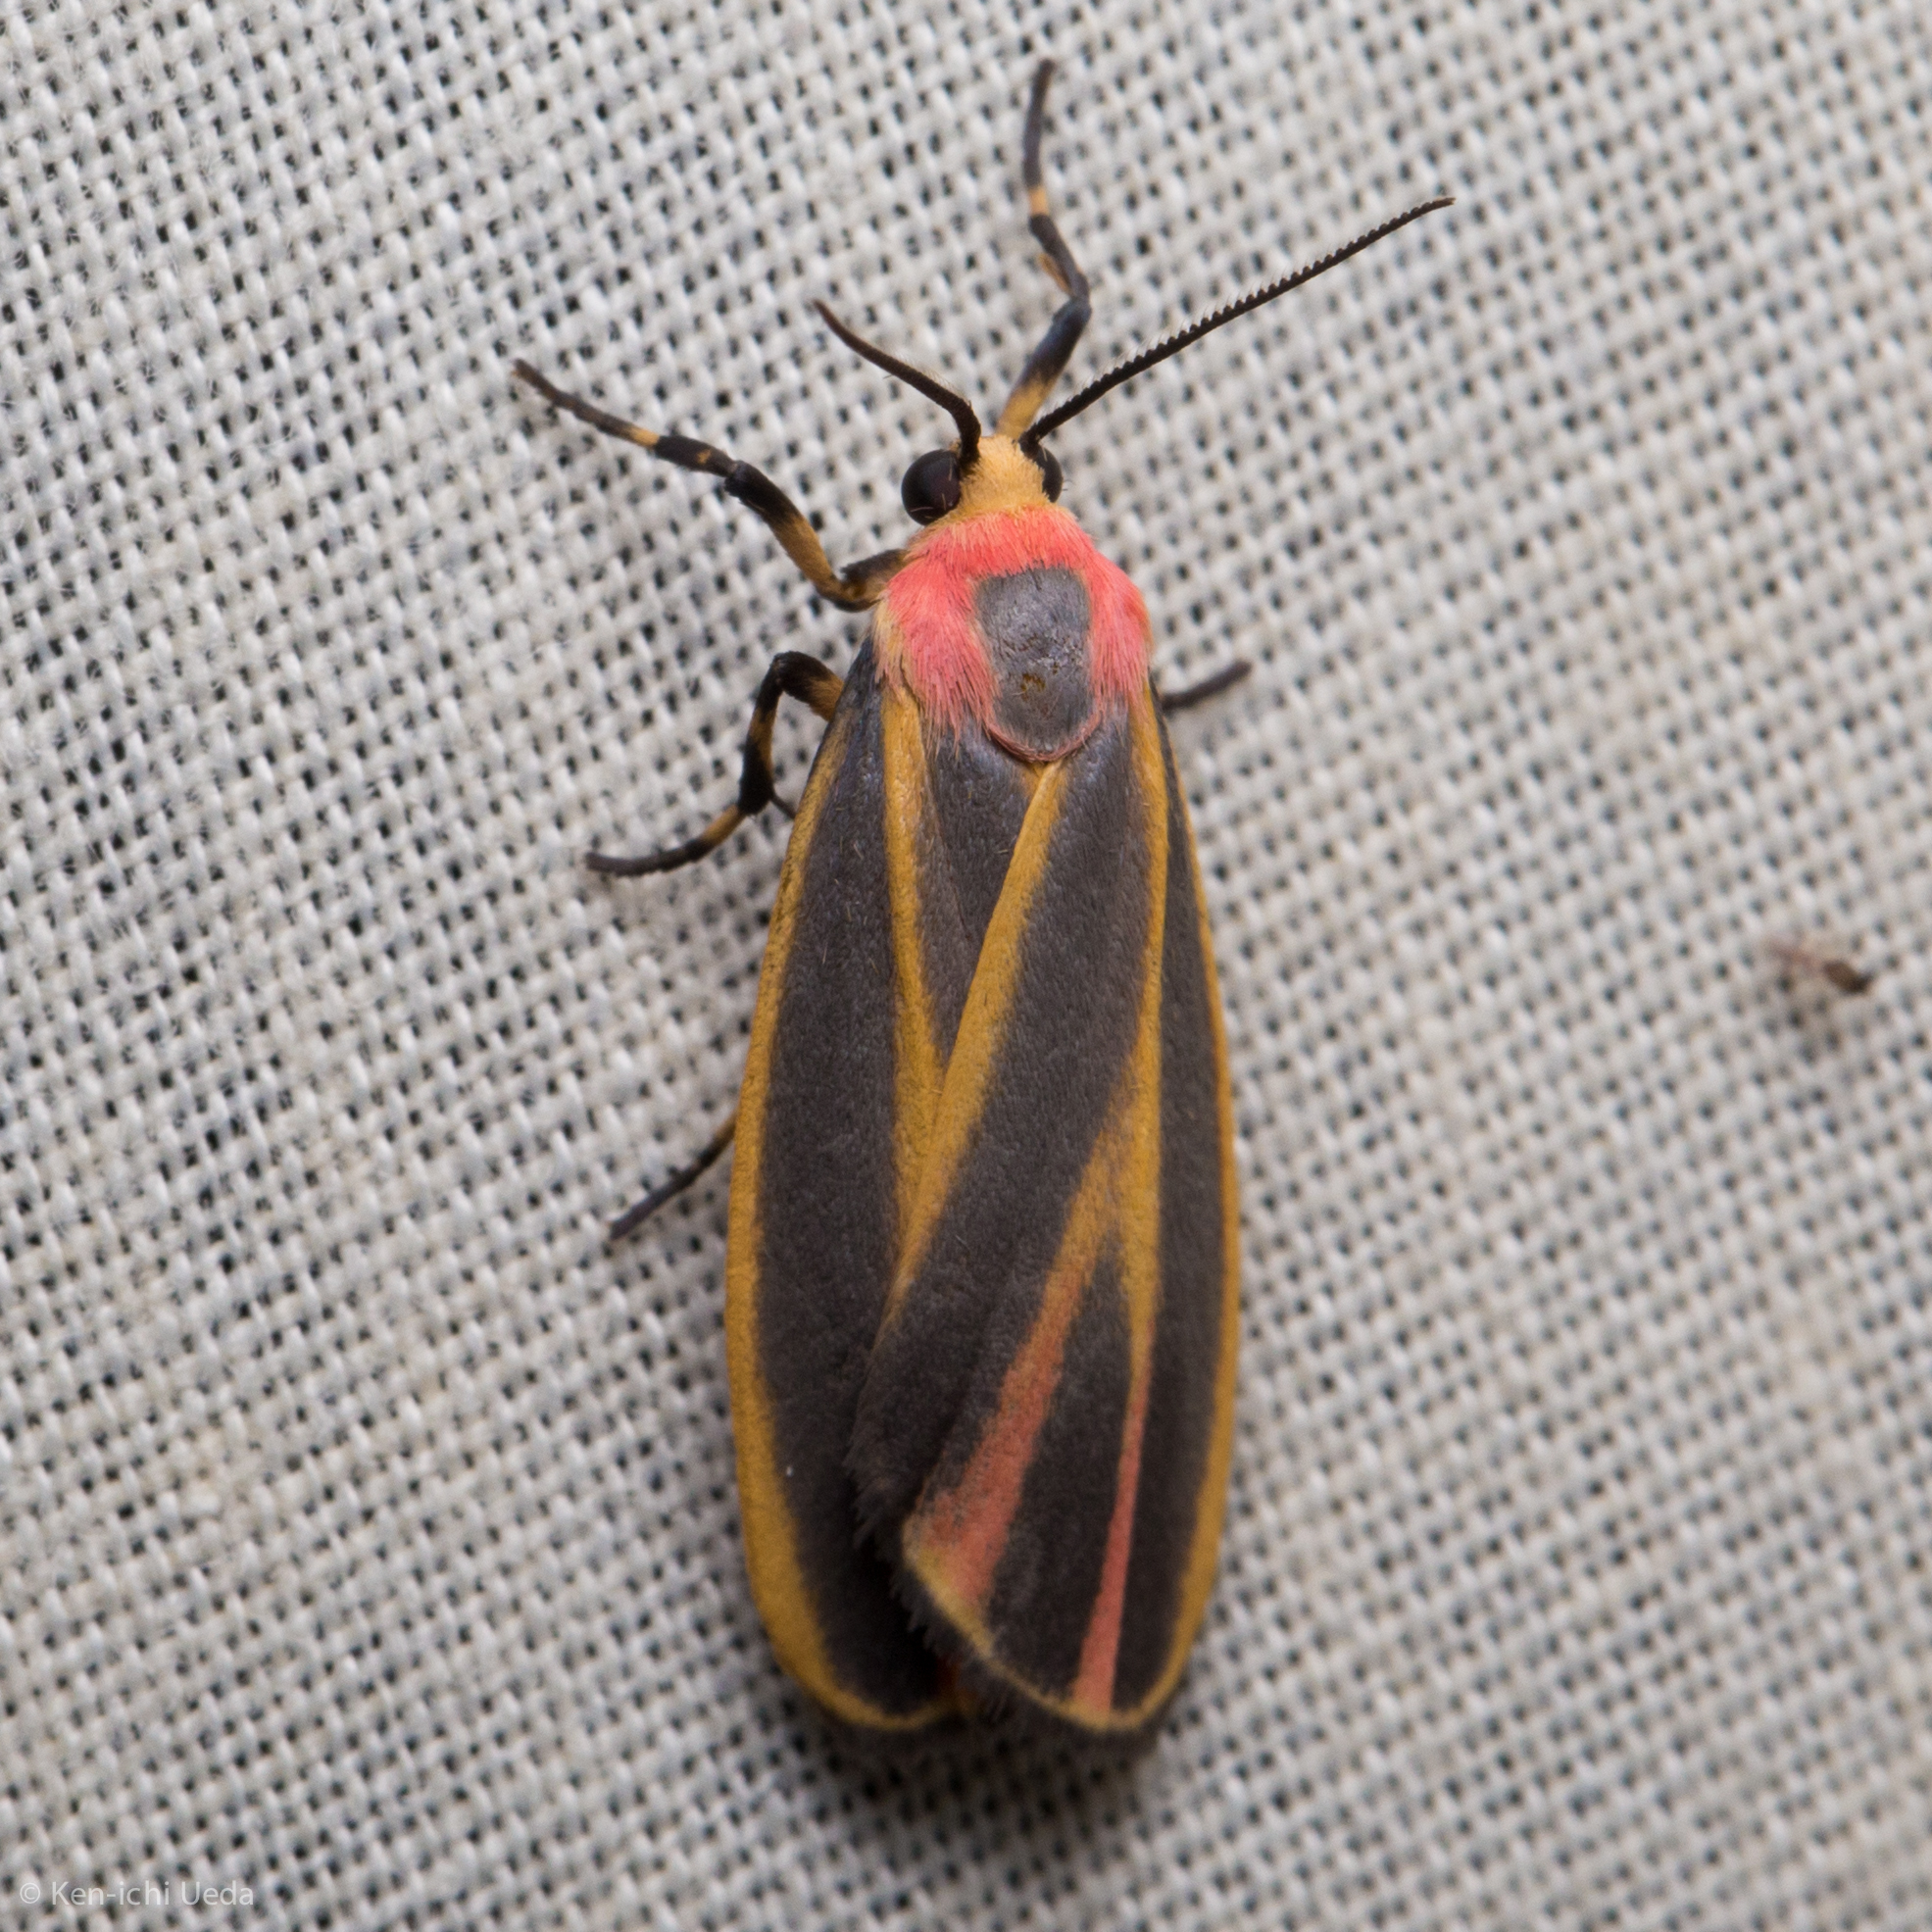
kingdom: Animalia
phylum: Arthropoda
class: Insecta
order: Lepidoptera
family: Erebidae
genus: Hypoprepia
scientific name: Hypoprepia fucosa
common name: Painted lichen moth
